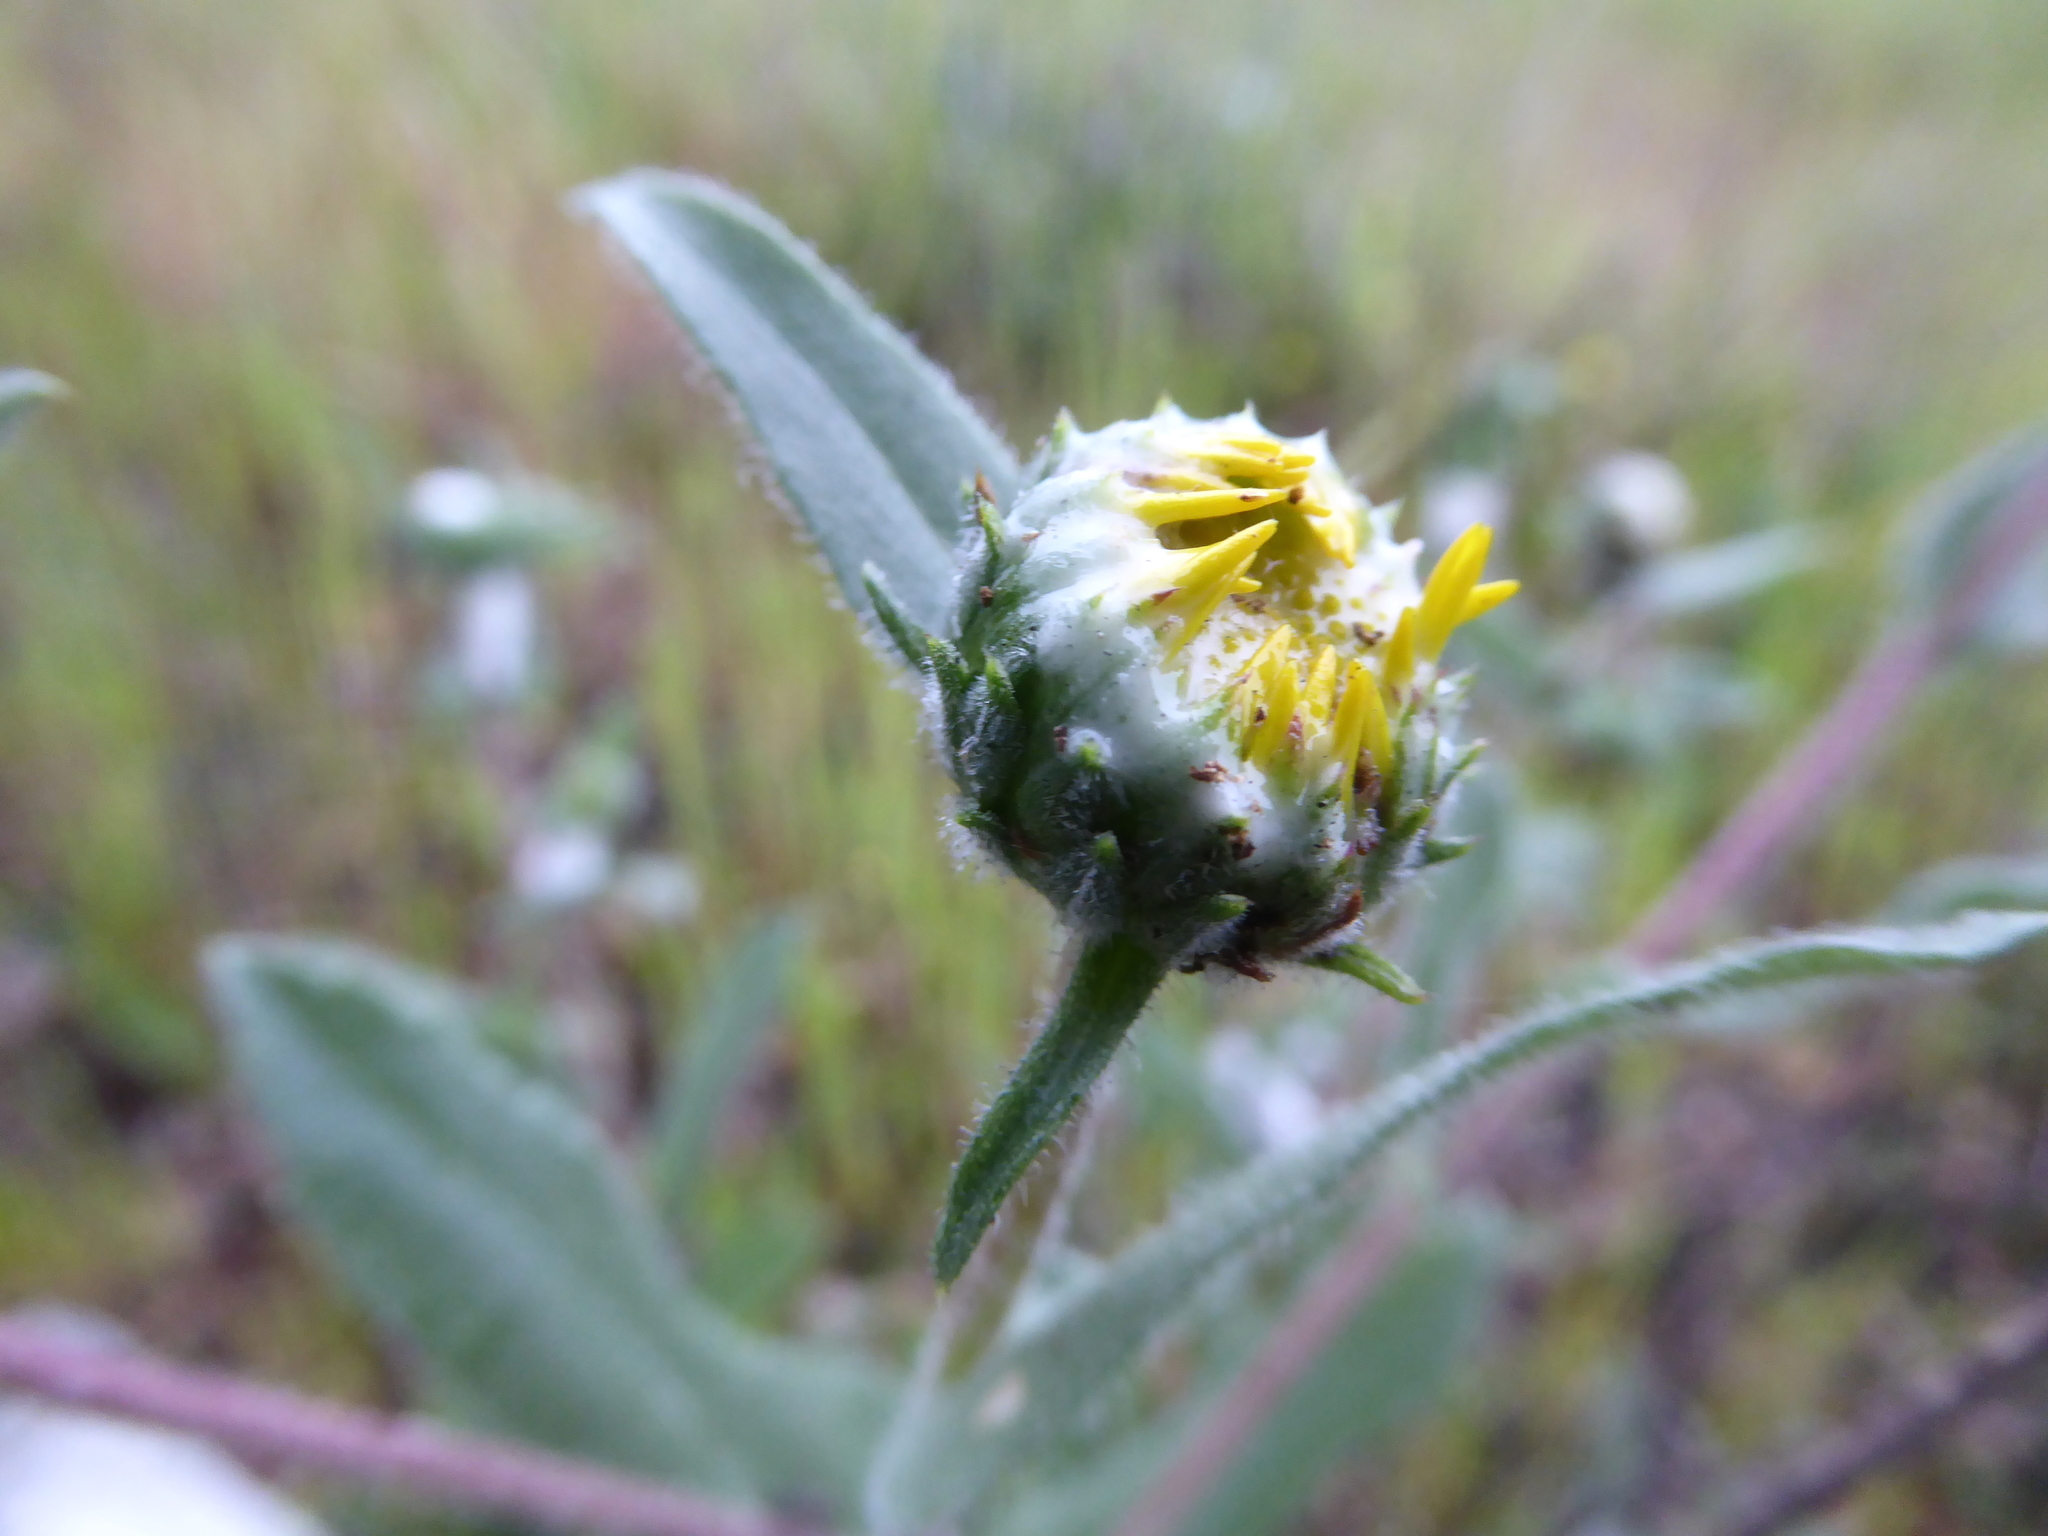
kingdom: Plantae
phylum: Tracheophyta
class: Magnoliopsida
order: Asterales
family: Asteraceae
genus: Grindelia
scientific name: Grindelia hirsutula
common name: Hairy gumweed
